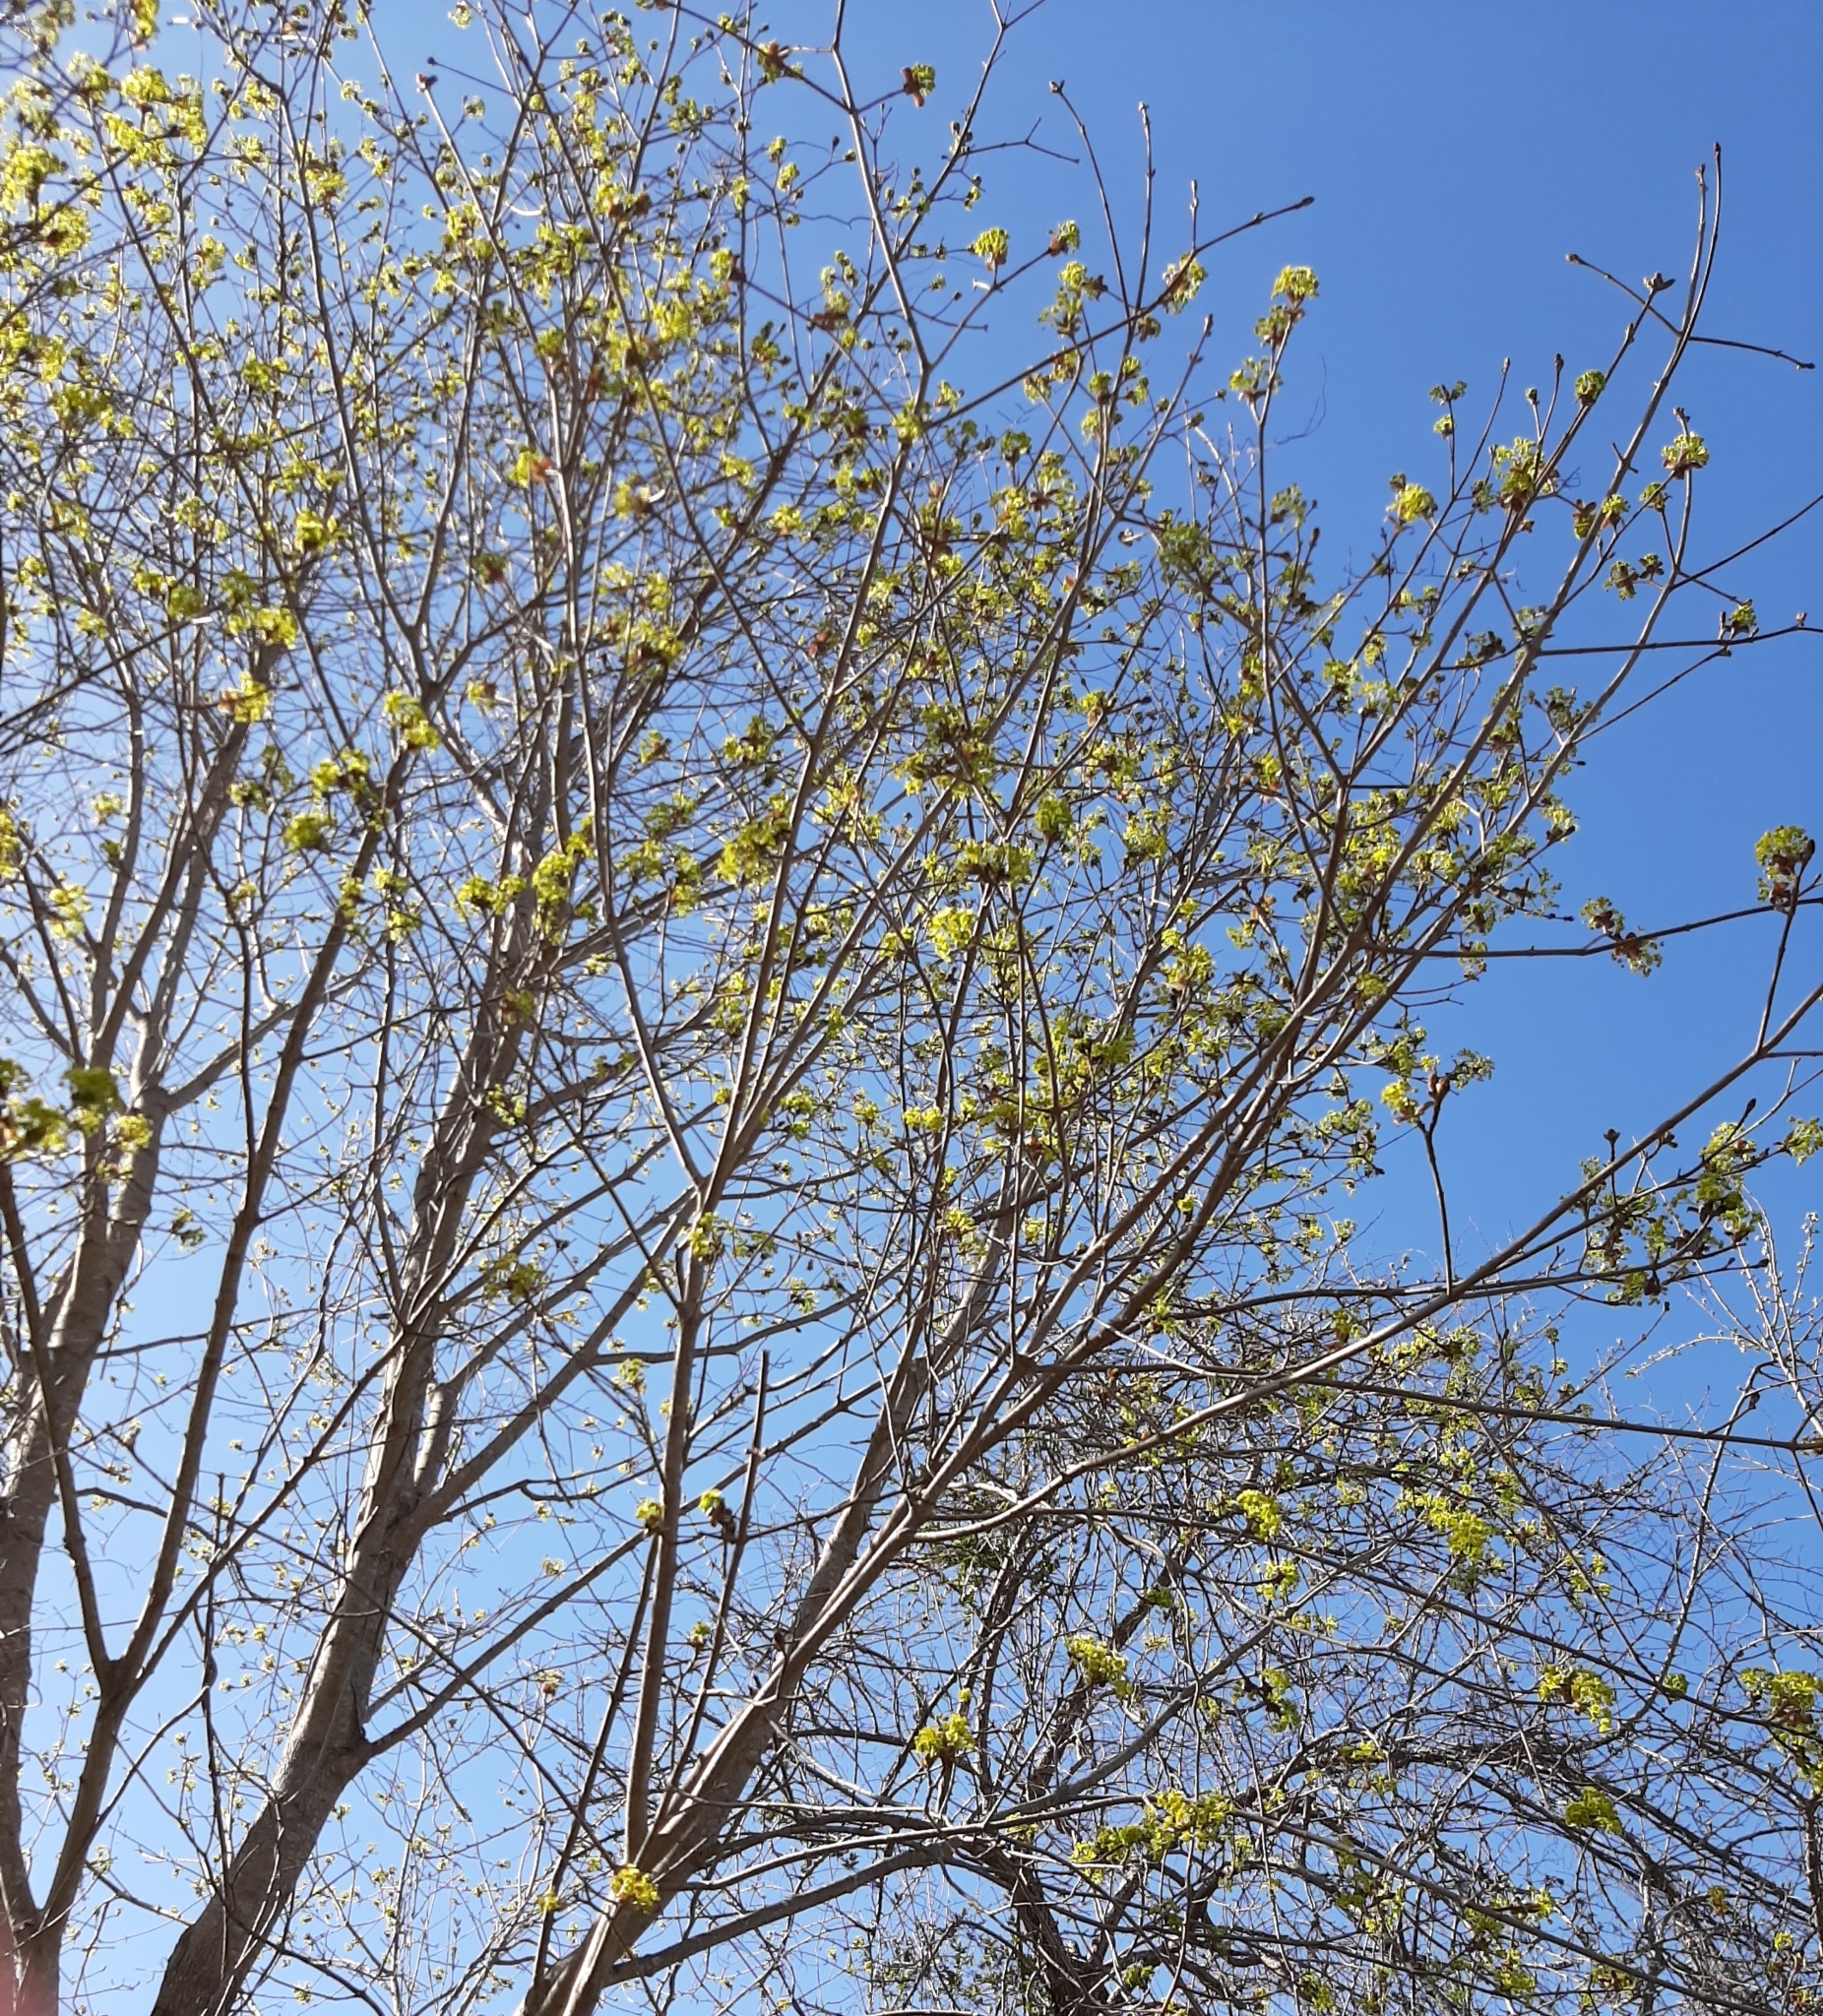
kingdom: Plantae
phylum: Tracheophyta
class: Magnoliopsida
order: Sapindales
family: Sapindaceae
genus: Acer
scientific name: Acer platanoides
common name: Norway maple
